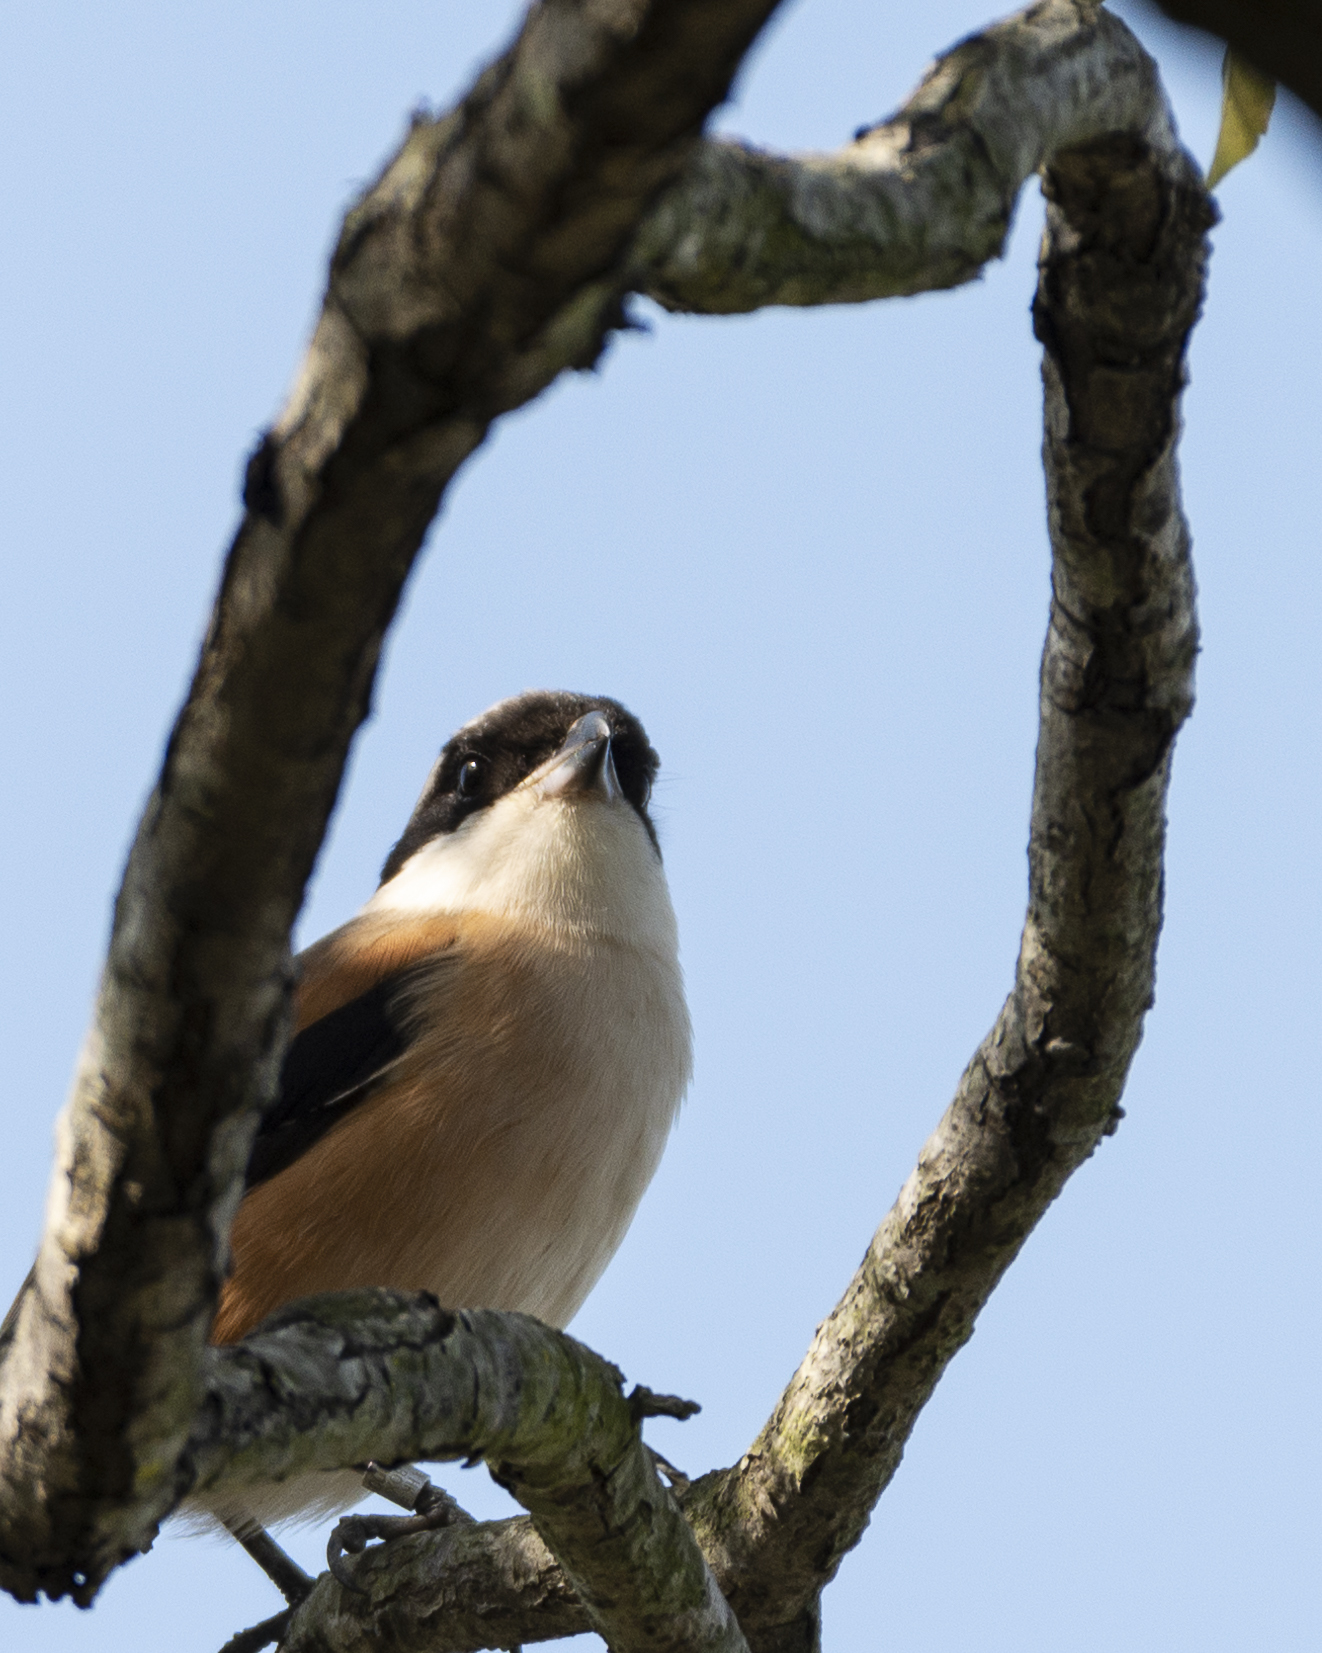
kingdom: Animalia
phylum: Chordata
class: Aves
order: Passeriformes
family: Laniidae
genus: Lanius
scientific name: Lanius schach
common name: Long-tailed shrike
